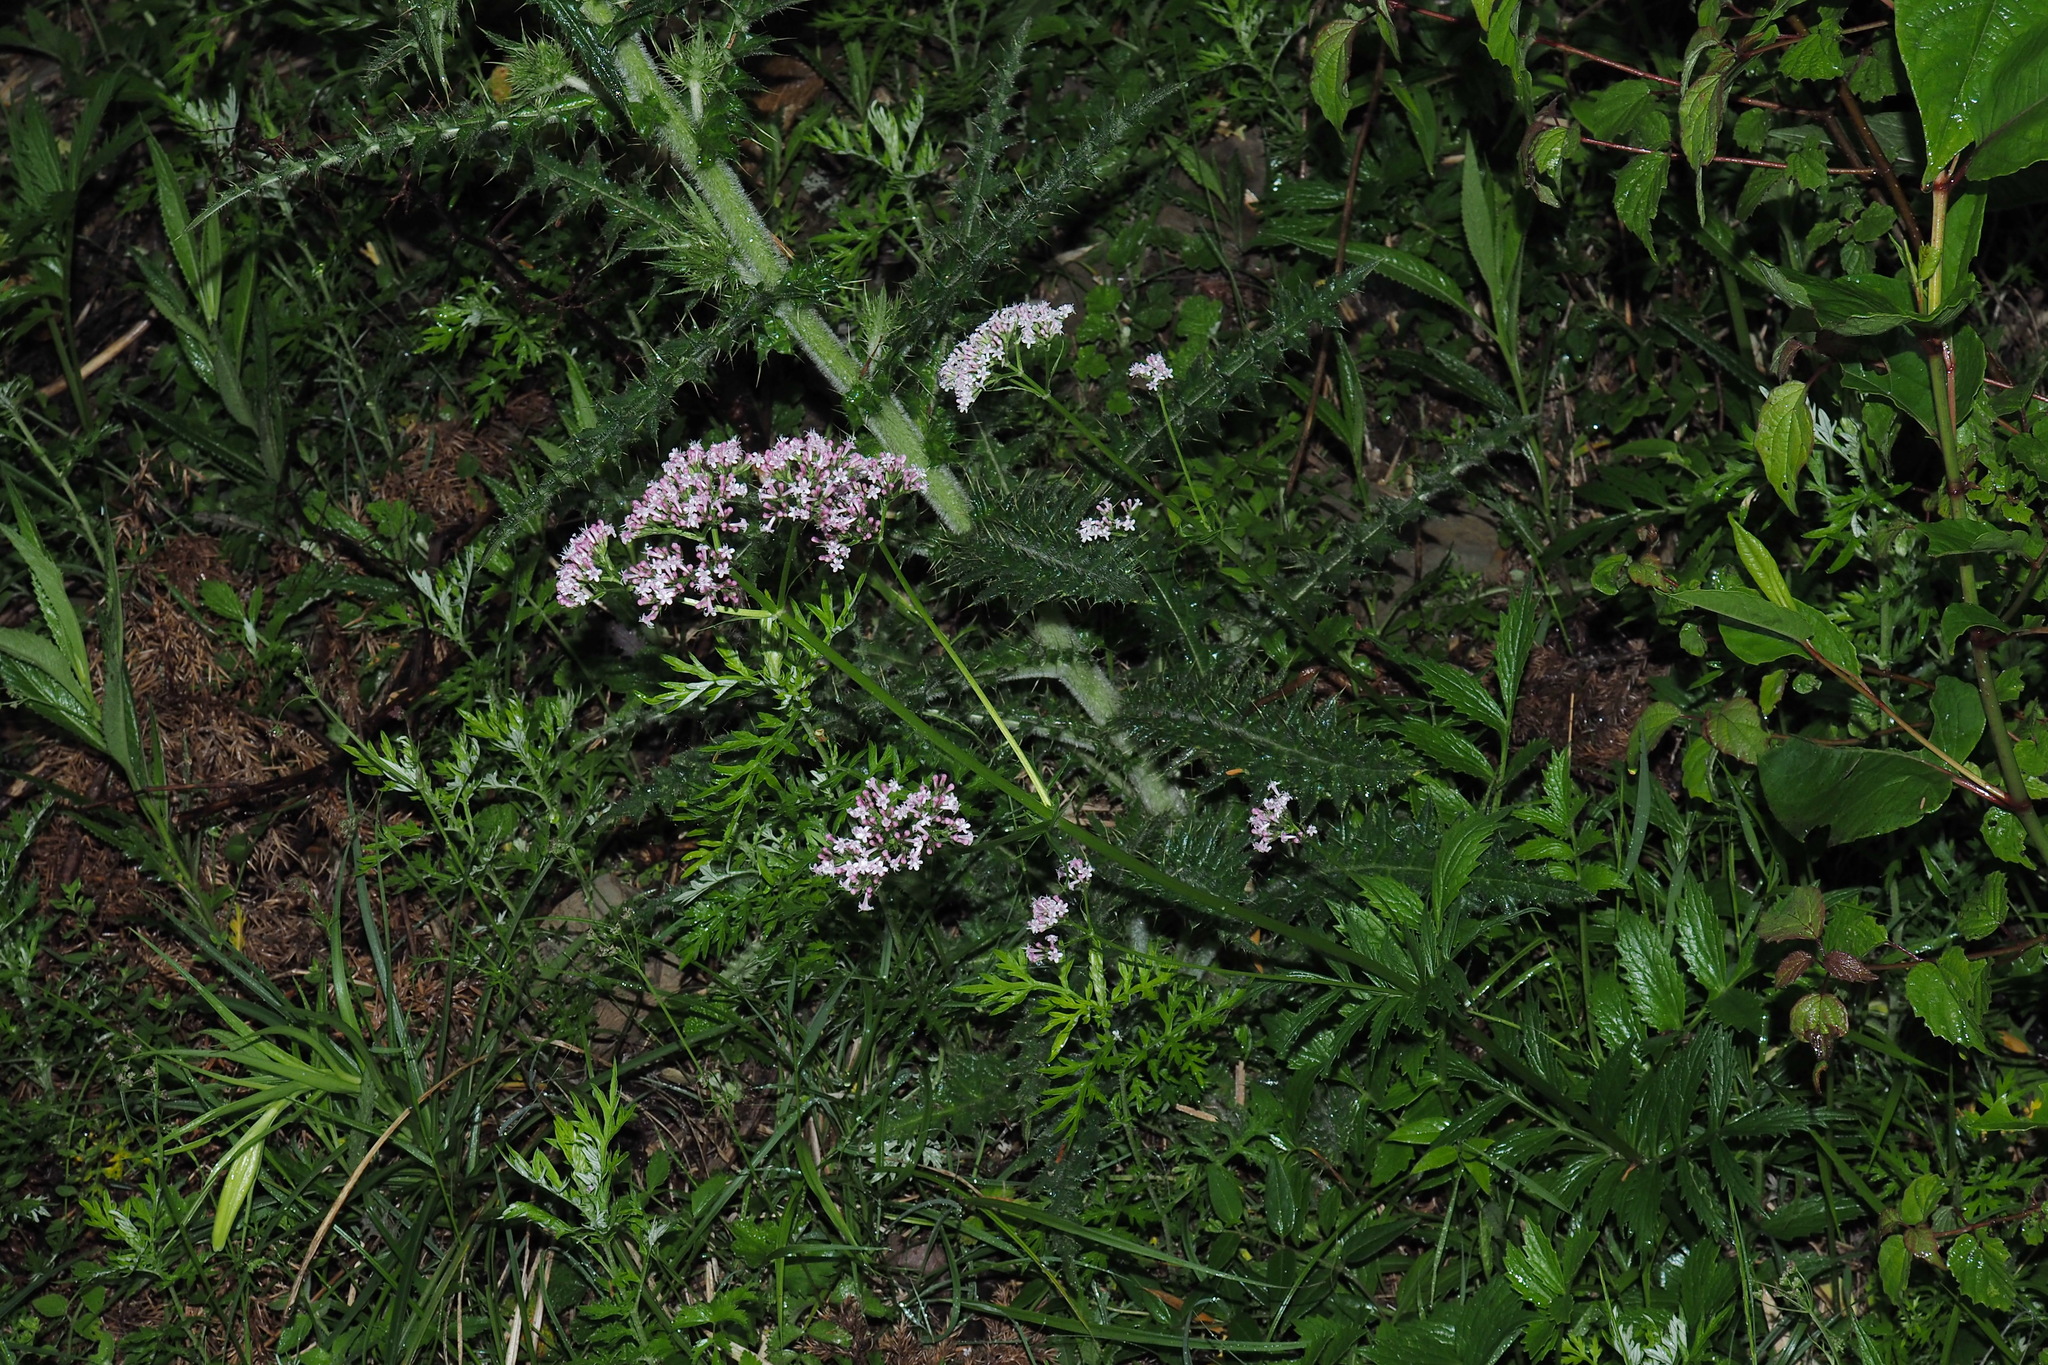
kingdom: Plantae
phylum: Tracheophyta
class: Magnoliopsida
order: Dipsacales
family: Caprifoliaceae
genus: Valeriana
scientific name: Valeriana officinalis
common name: Common valerian
